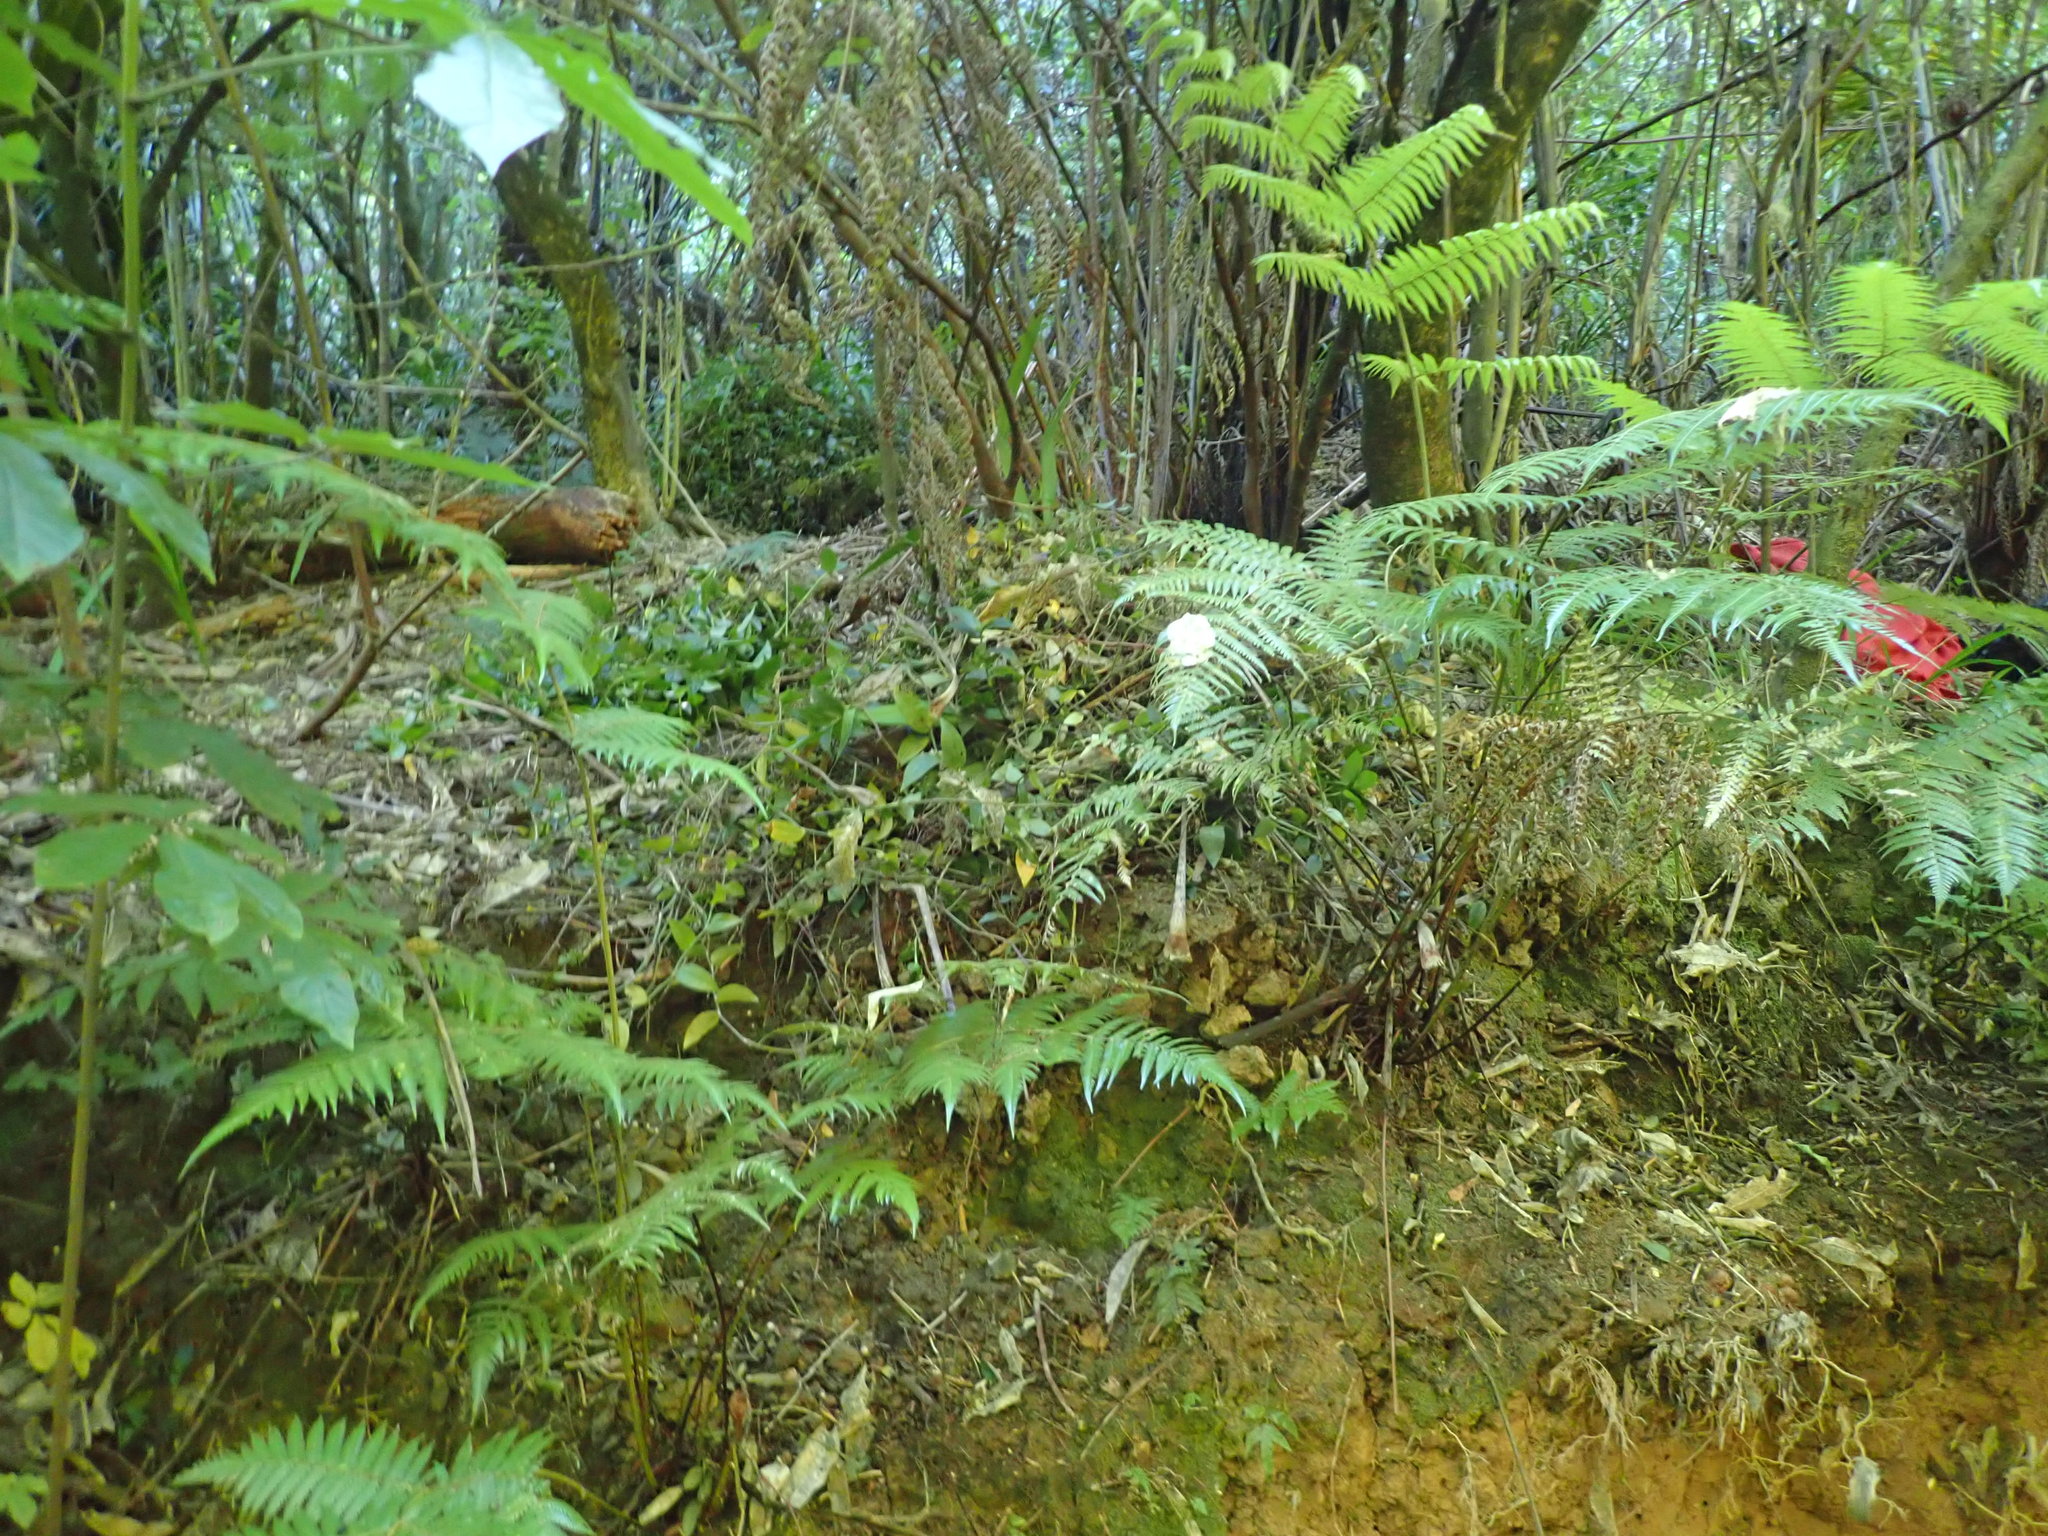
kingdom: Plantae
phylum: Tracheophyta
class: Polypodiopsida
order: Cyatheales
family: Cyatheaceae
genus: Alsophila
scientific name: Alsophila dealbata
